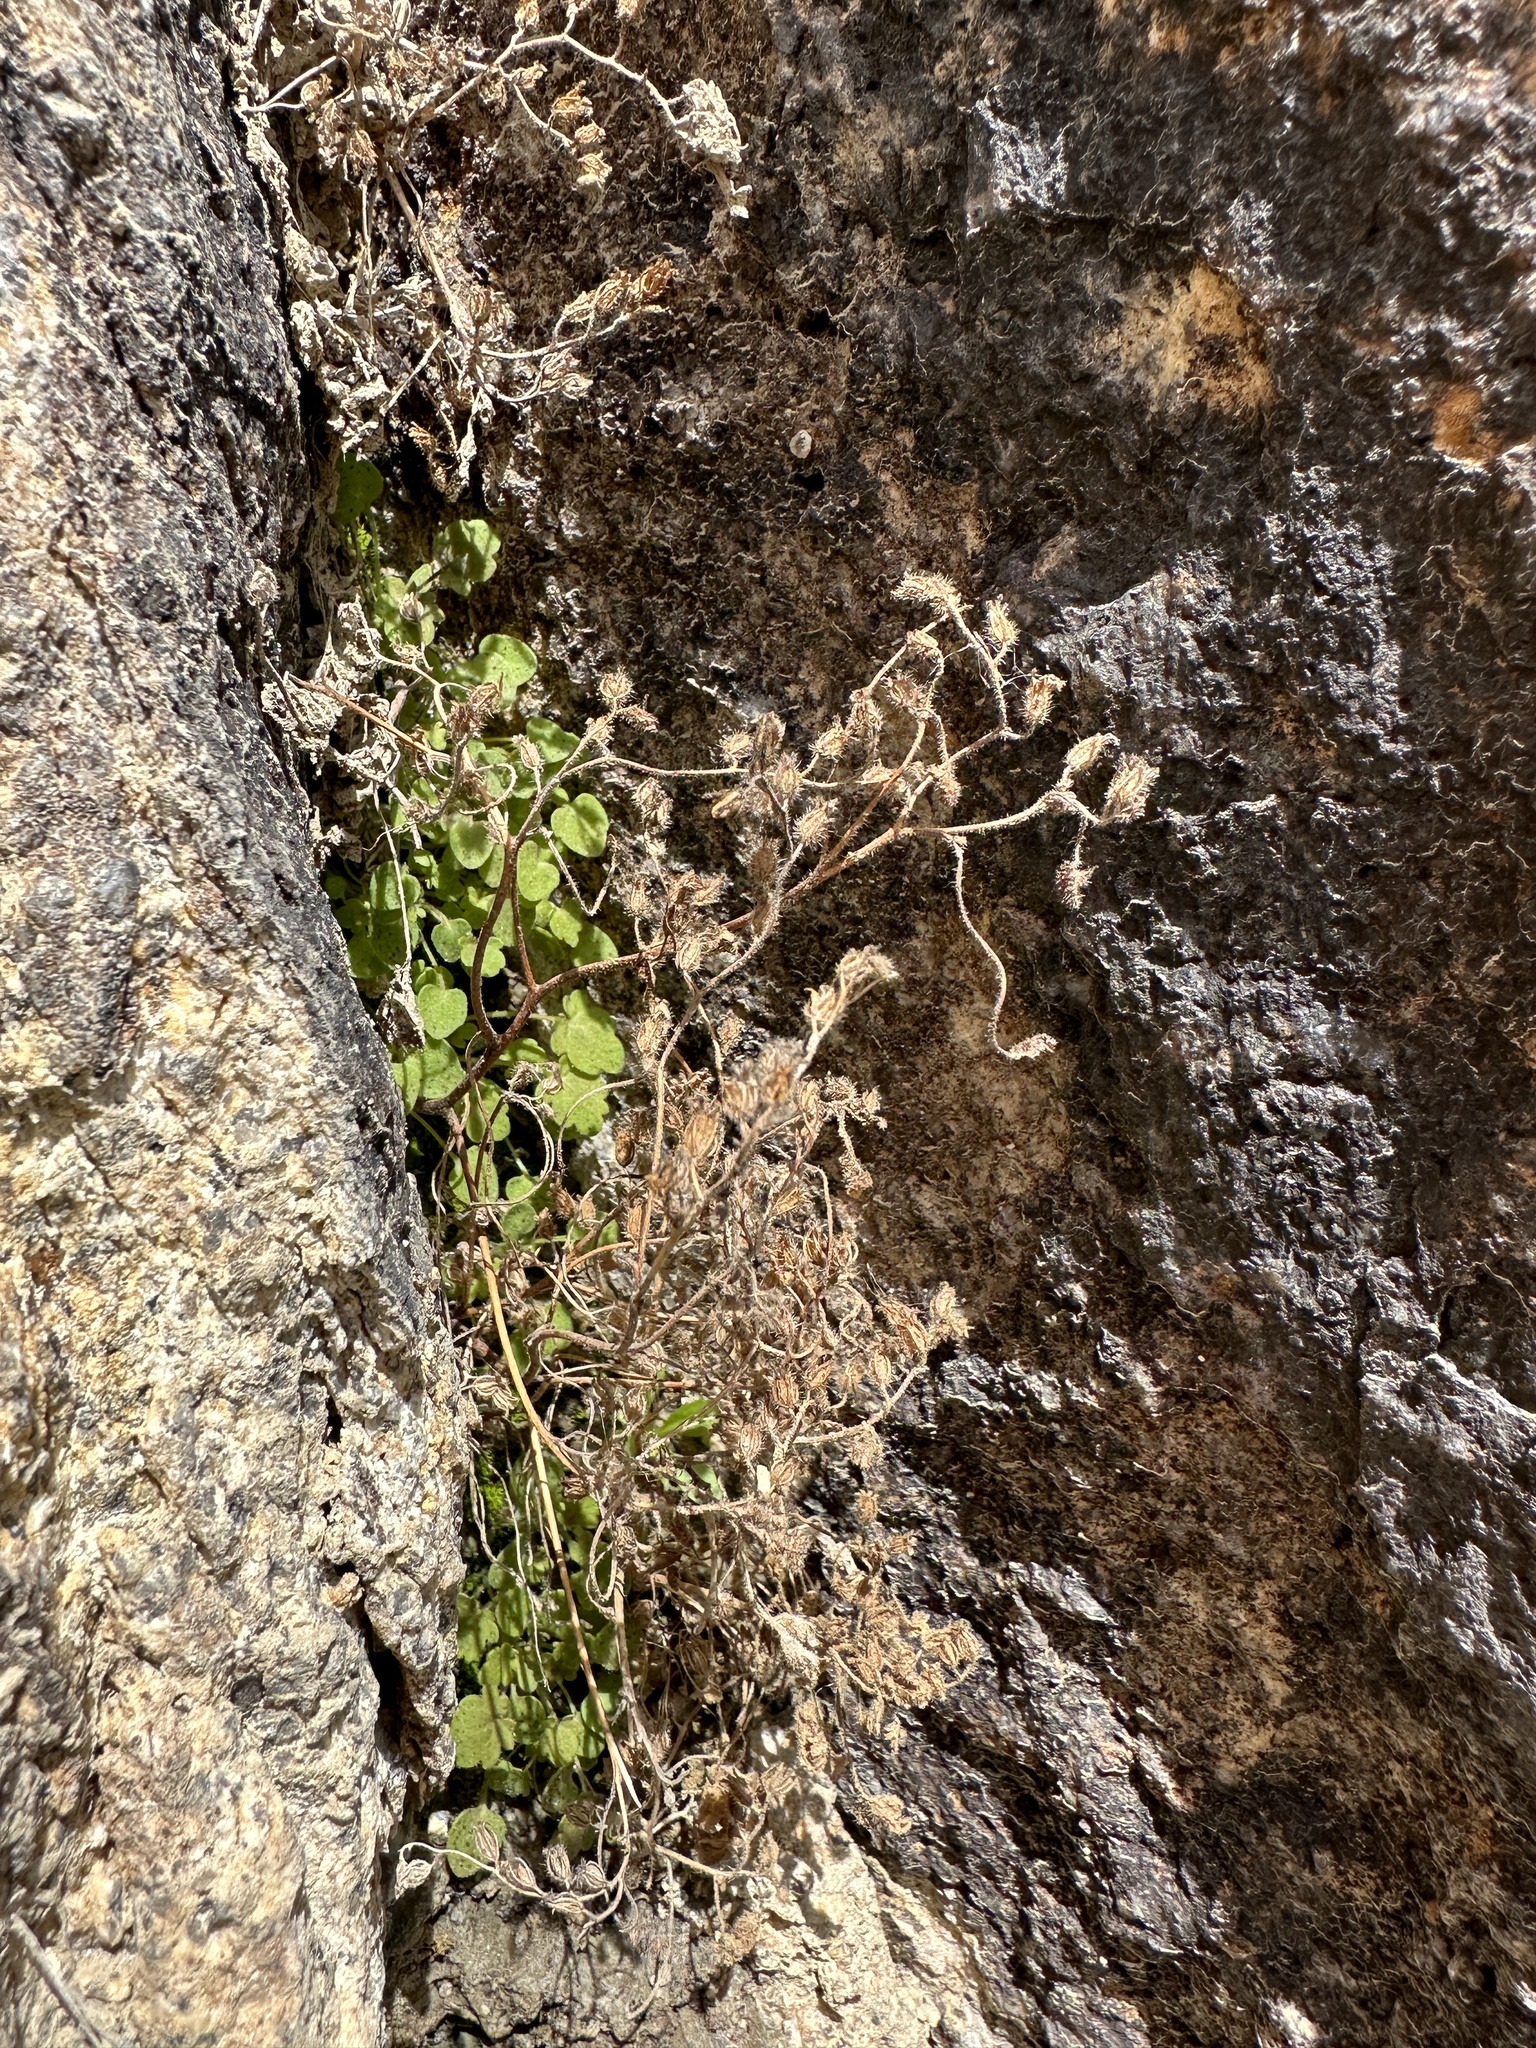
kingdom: Plantae
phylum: Tracheophyta
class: Magnoliopsida
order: Boraginales
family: Hydrophyllaceae
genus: Phacelia
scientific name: Phacelia perityloides
